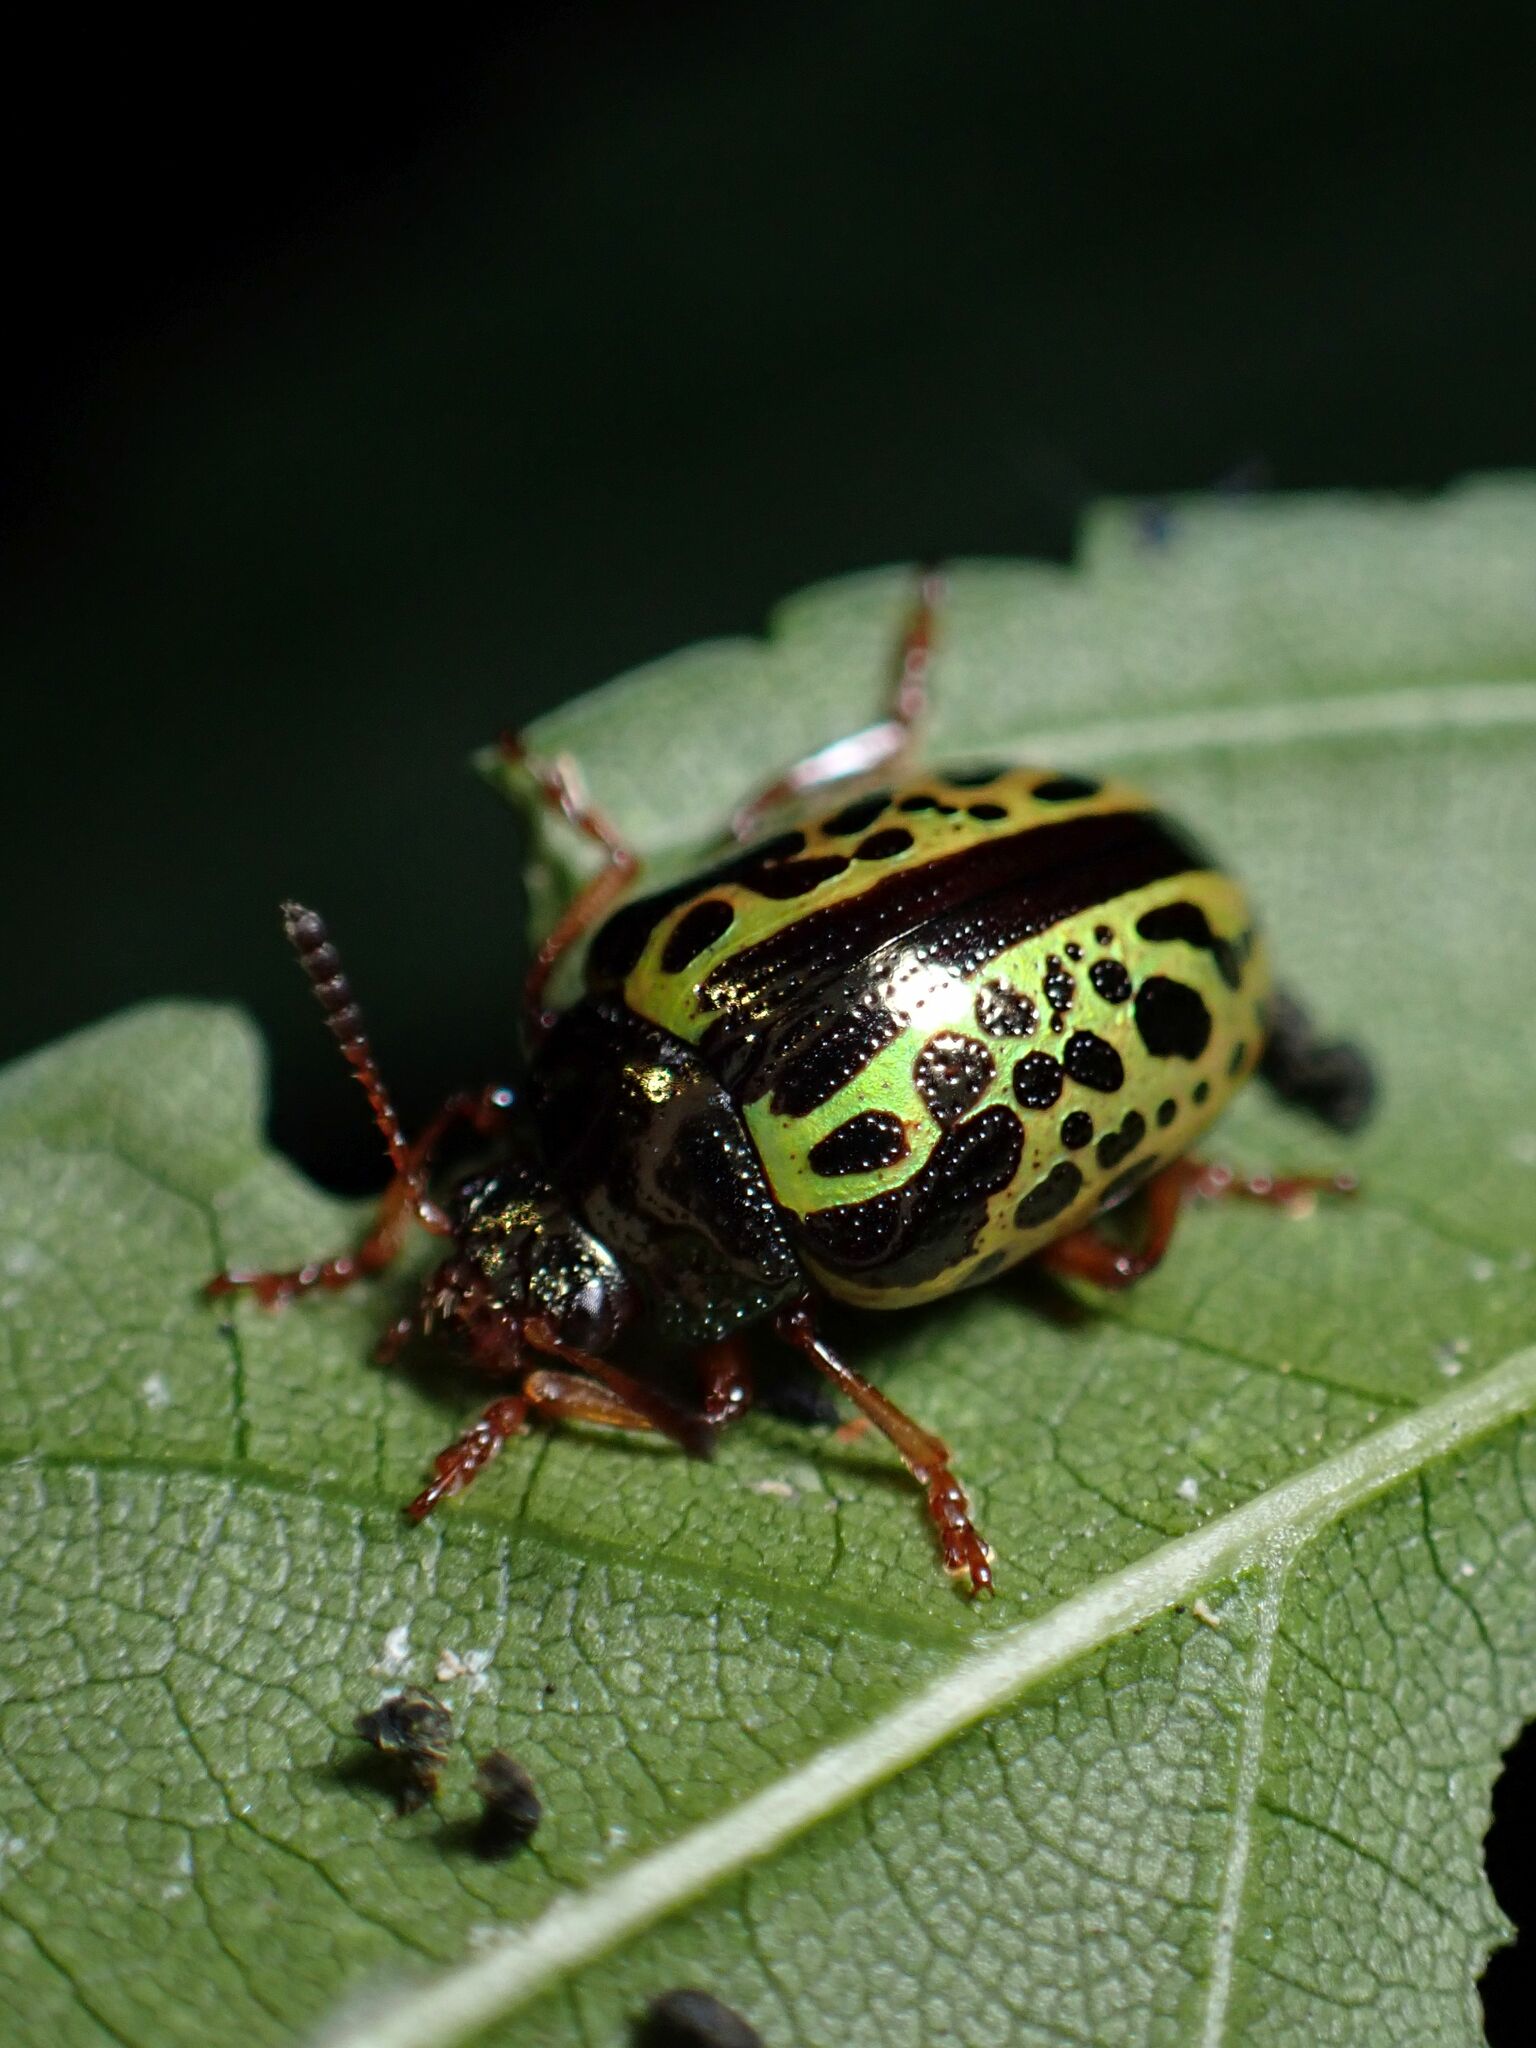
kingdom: Animalia
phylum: Arthropoda
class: Insecta
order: Coleoptera
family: Chrysomelidae
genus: Calligrapha
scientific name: Calligrapha pantherina
